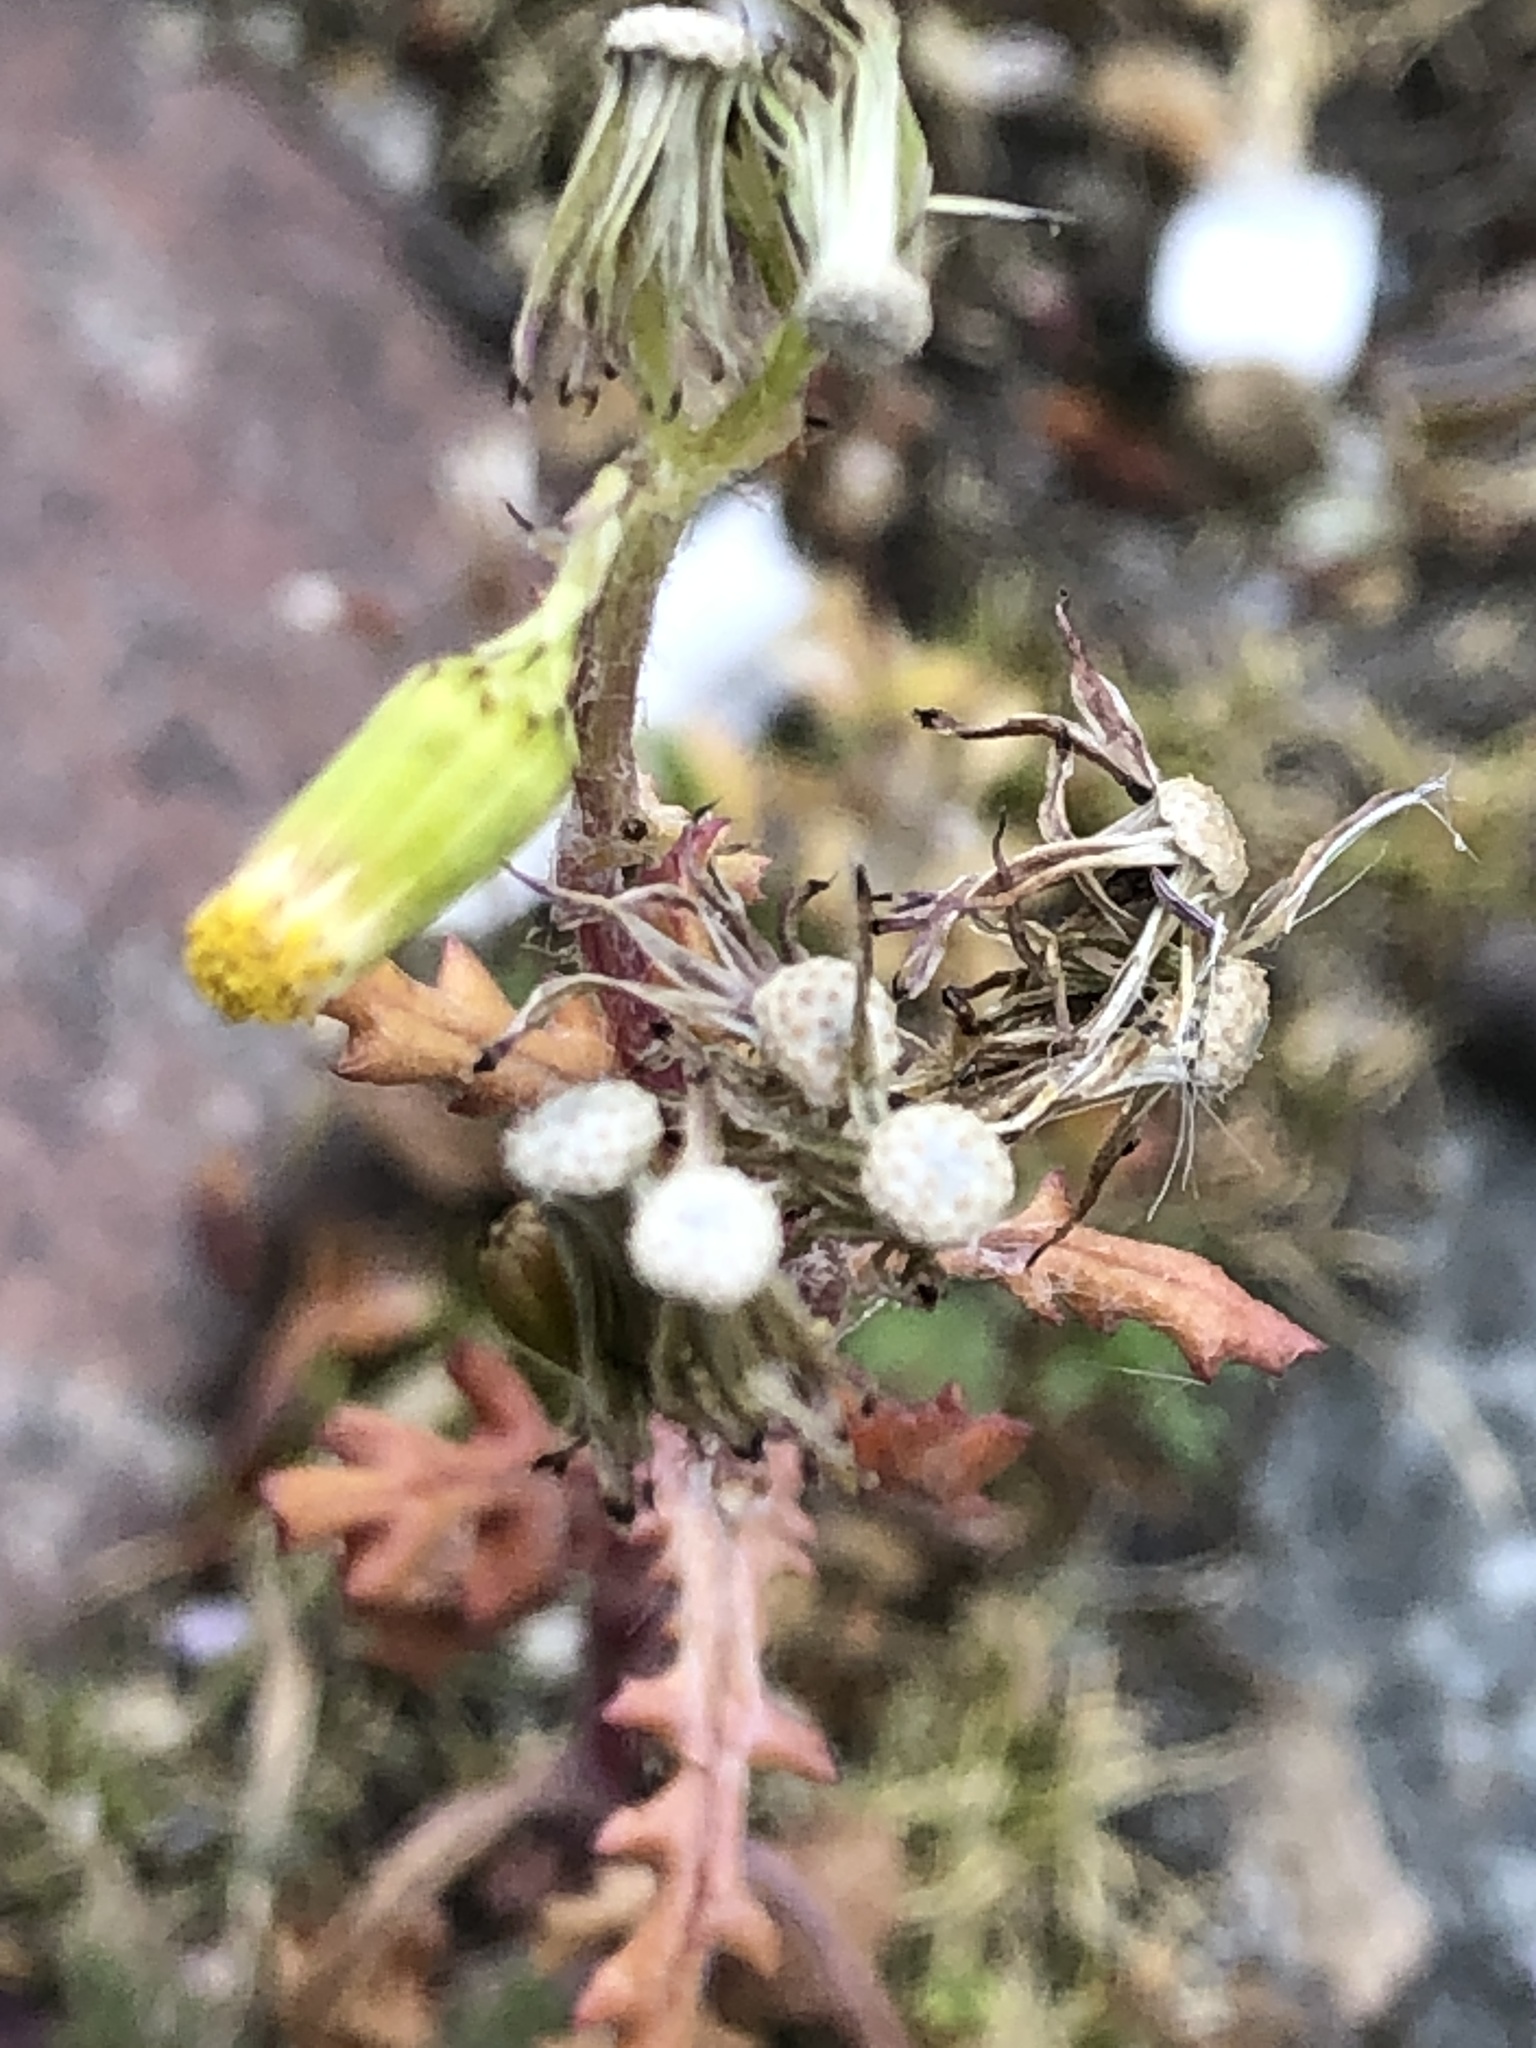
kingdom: Plantae
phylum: Tracheophyta
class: Magnoliopsida
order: Asterales
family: Asteraceae
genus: Senecio
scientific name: Senecio vulgaris
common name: Old-man-in-the-spring
